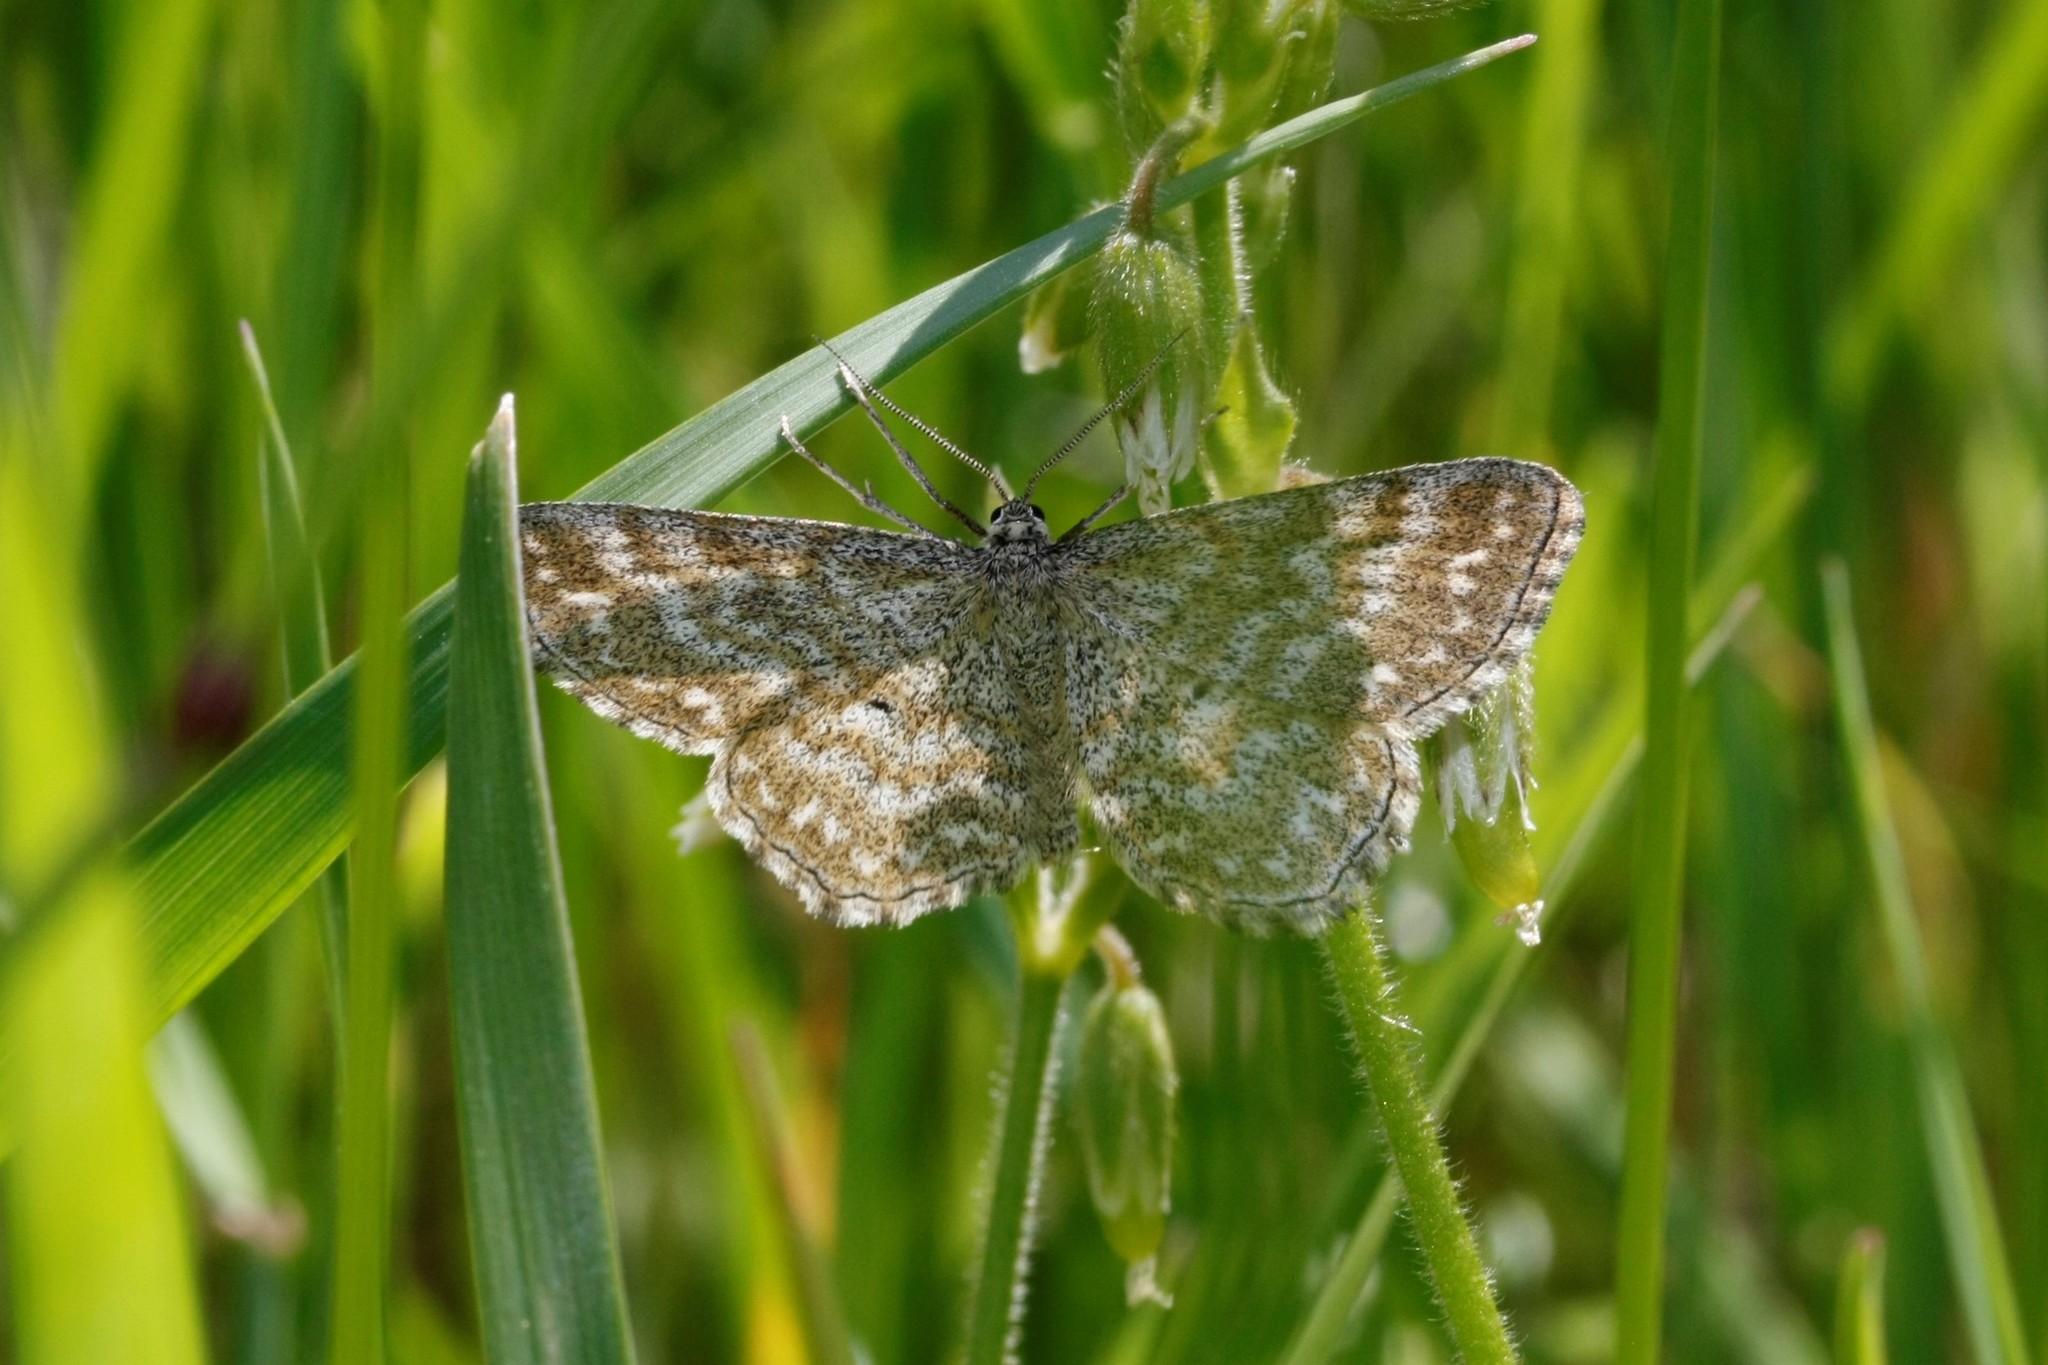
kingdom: Animalia
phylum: Arthropoda
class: Insecta
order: Lepidoptera
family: Geometridae
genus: Scopula
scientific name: Scopula immorata
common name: Lewes wave
